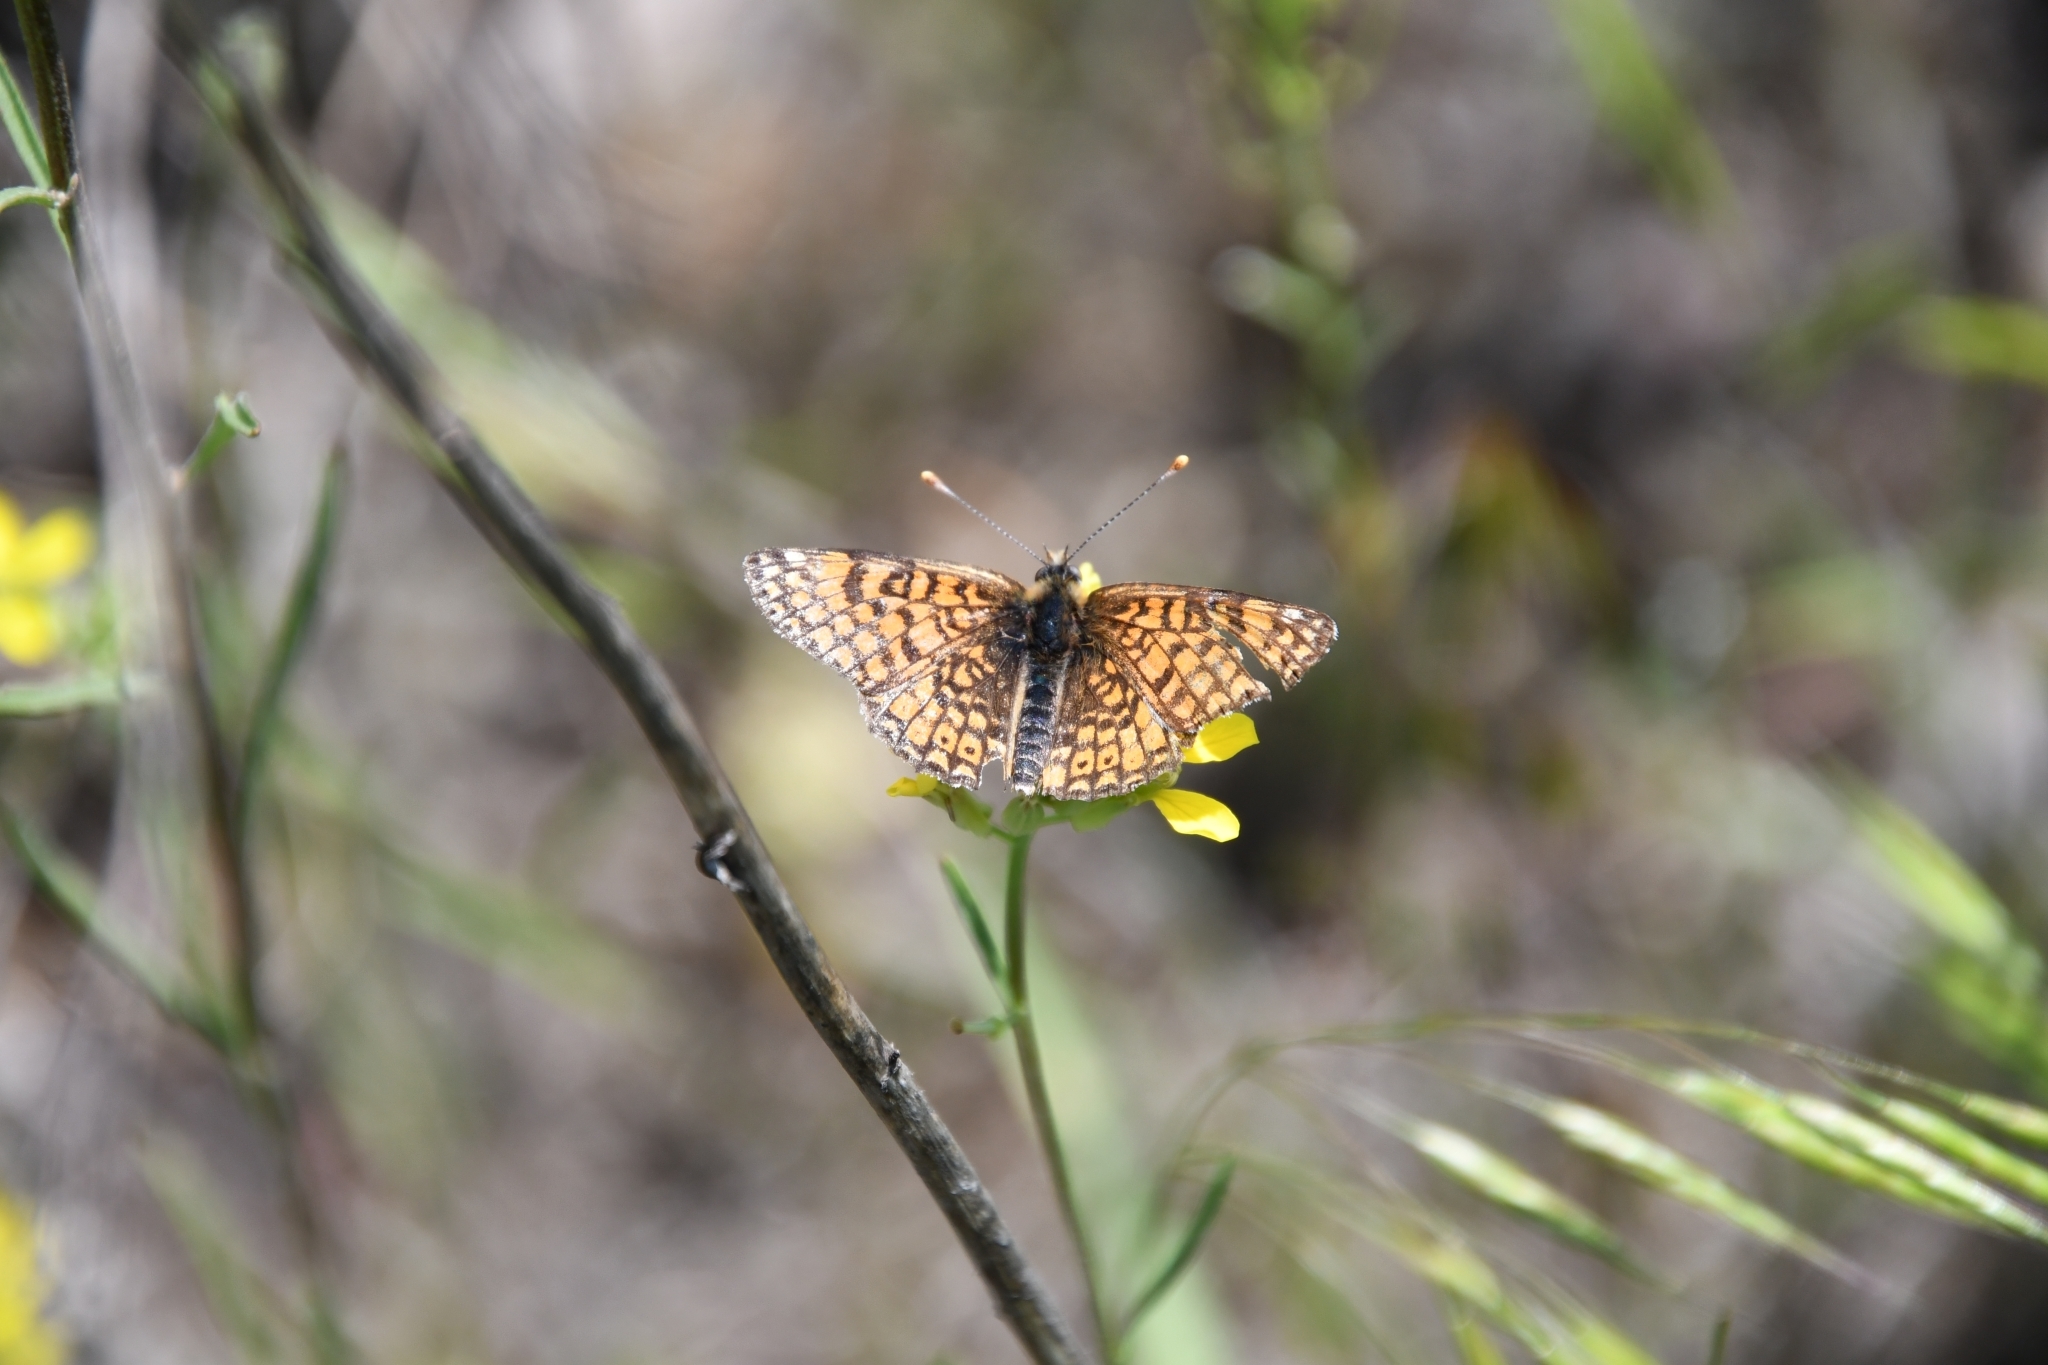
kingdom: Animalia
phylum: Arthropoda
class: Insecta
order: Lepidoptera
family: Nymphalidae
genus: Melitaea
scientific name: Melitaea cinxia
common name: Glanville fritillary
